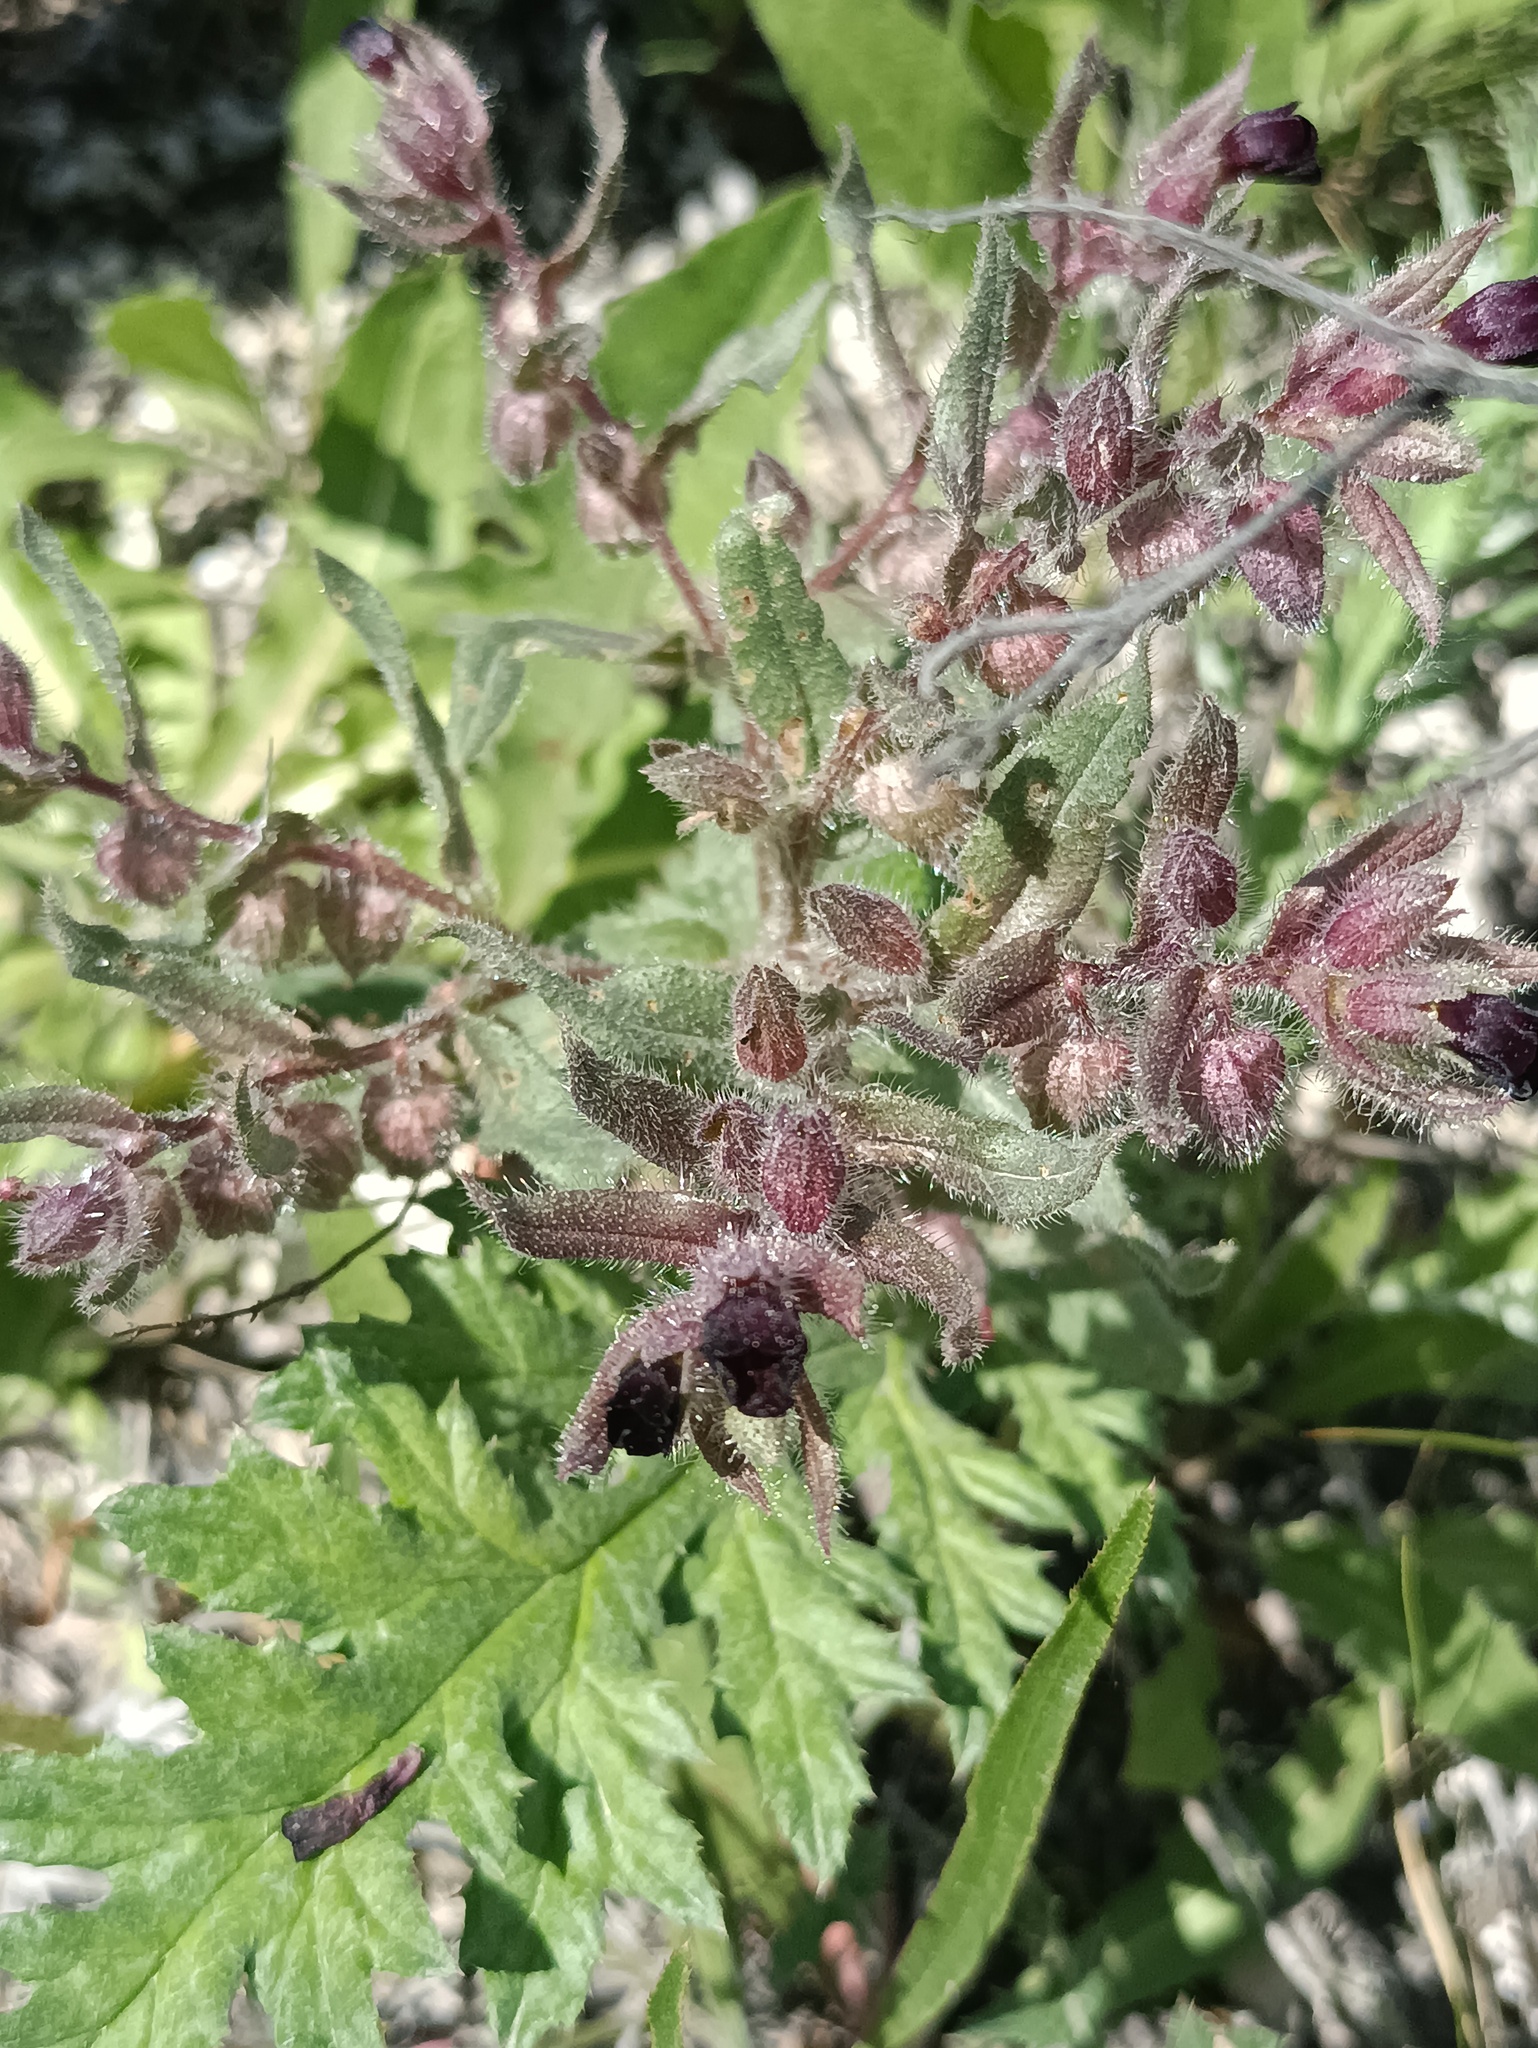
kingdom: Plantae
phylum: Tracheophyta
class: Magnoliopsida
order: Boraginales
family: Boraginaceae
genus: Nonea
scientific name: Nonea pulla
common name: Brown nonea
